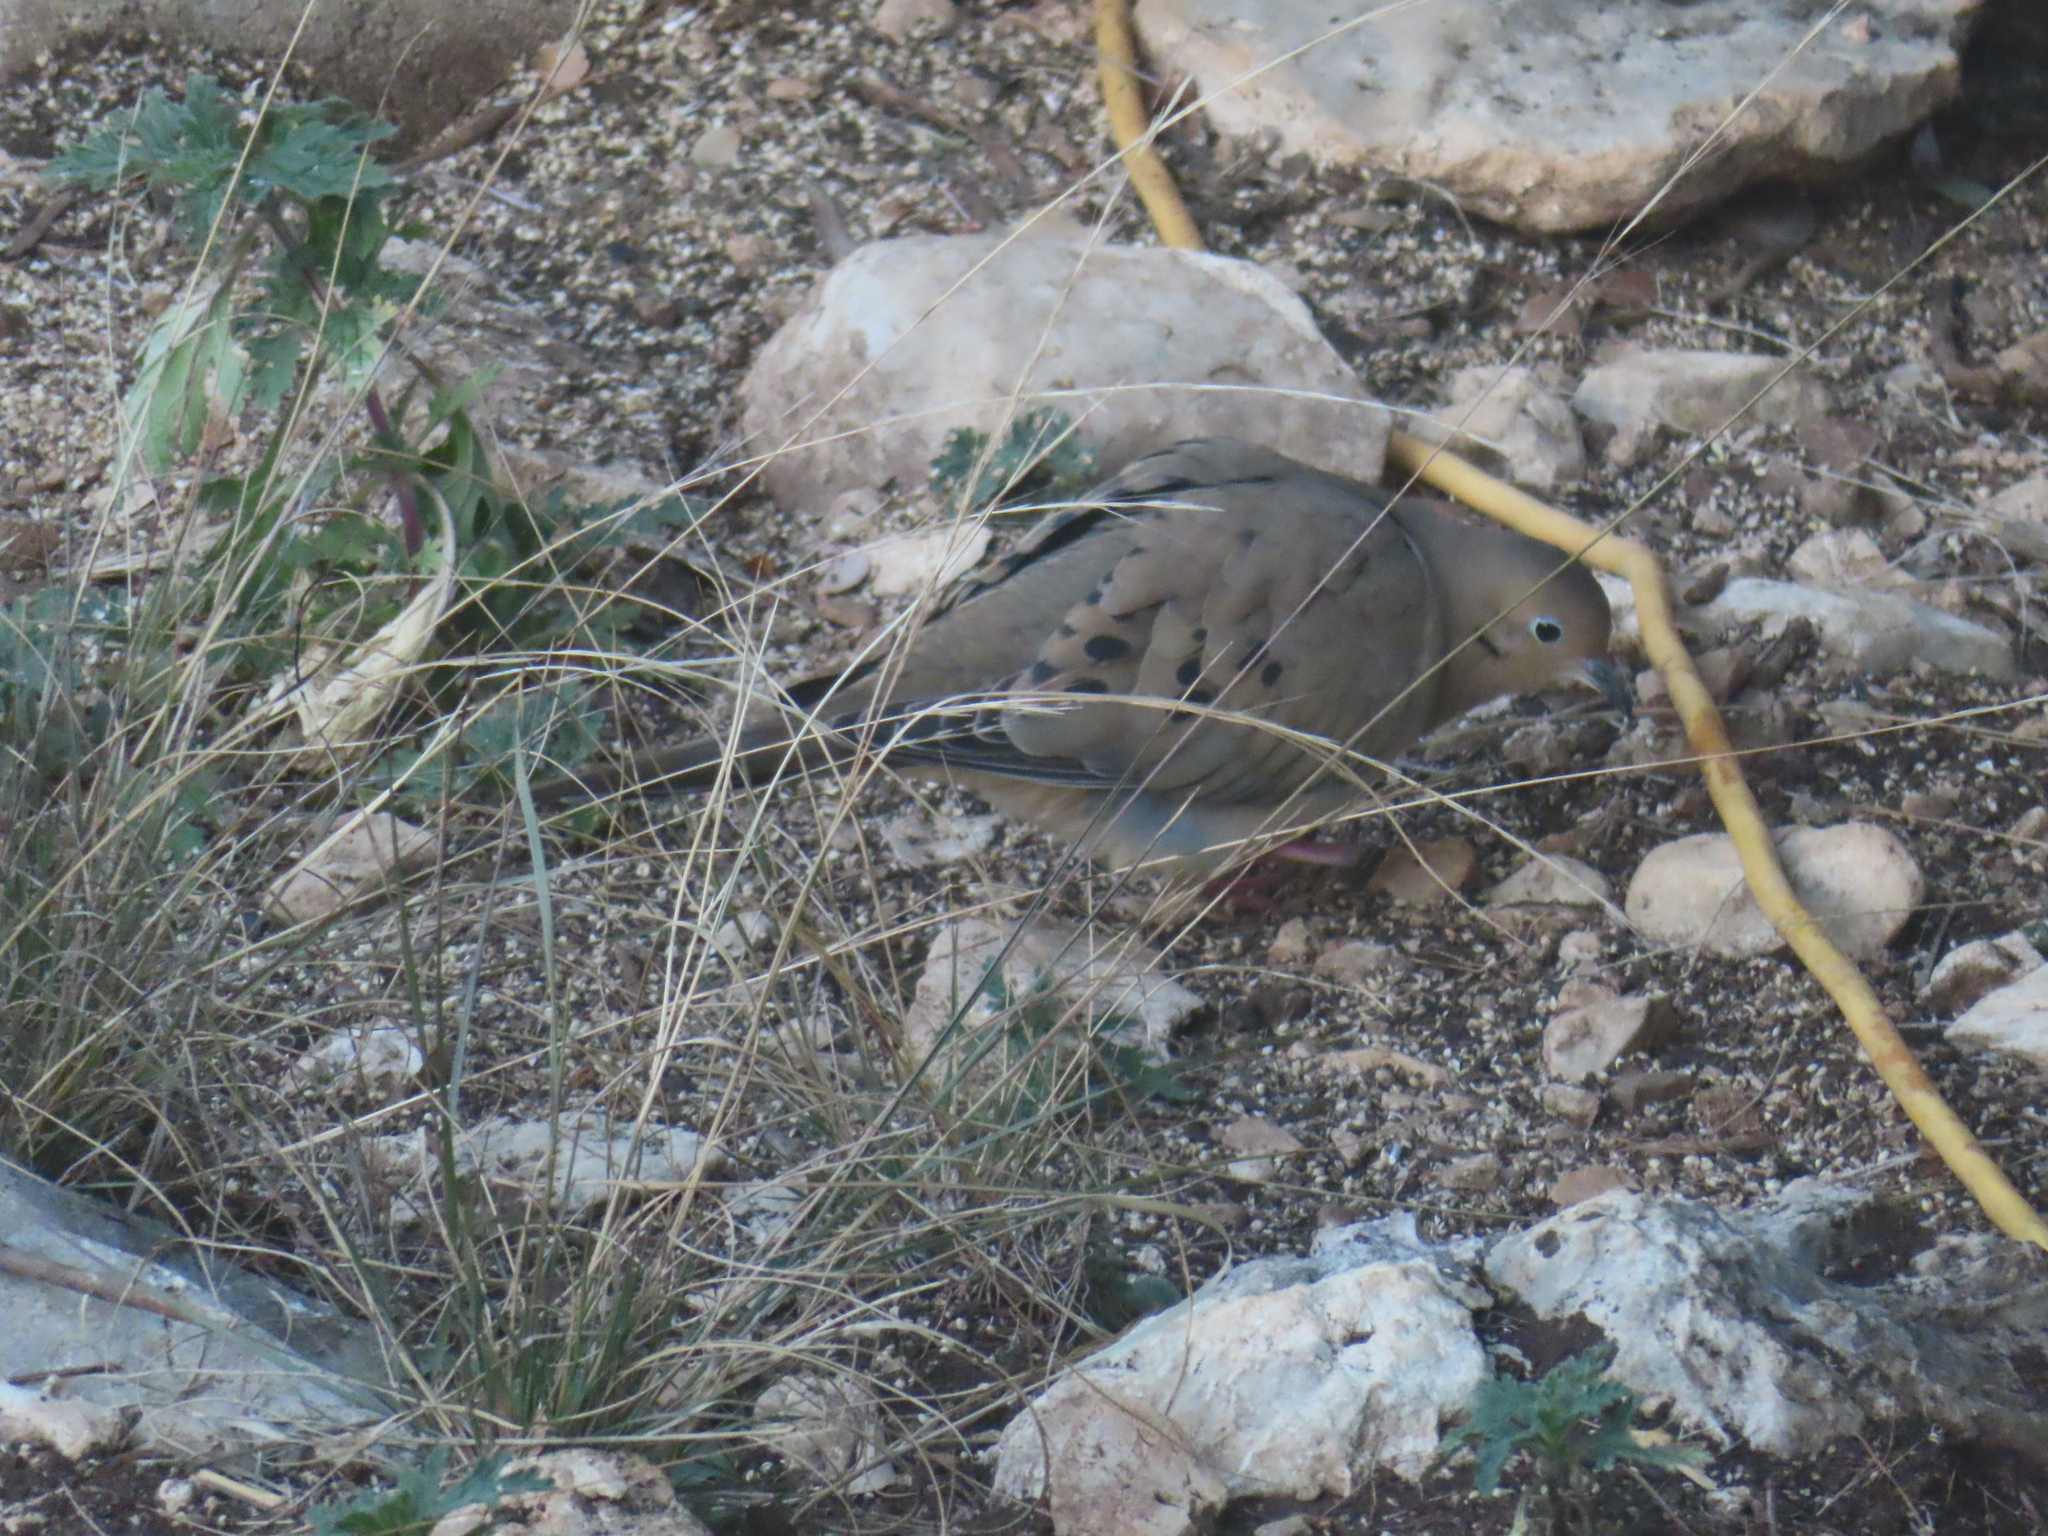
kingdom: Animalia
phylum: Chordata
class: Aves
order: Columbiformes
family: Columbidae
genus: Zenaida
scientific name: Zenaida macroura
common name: Mourning dove
